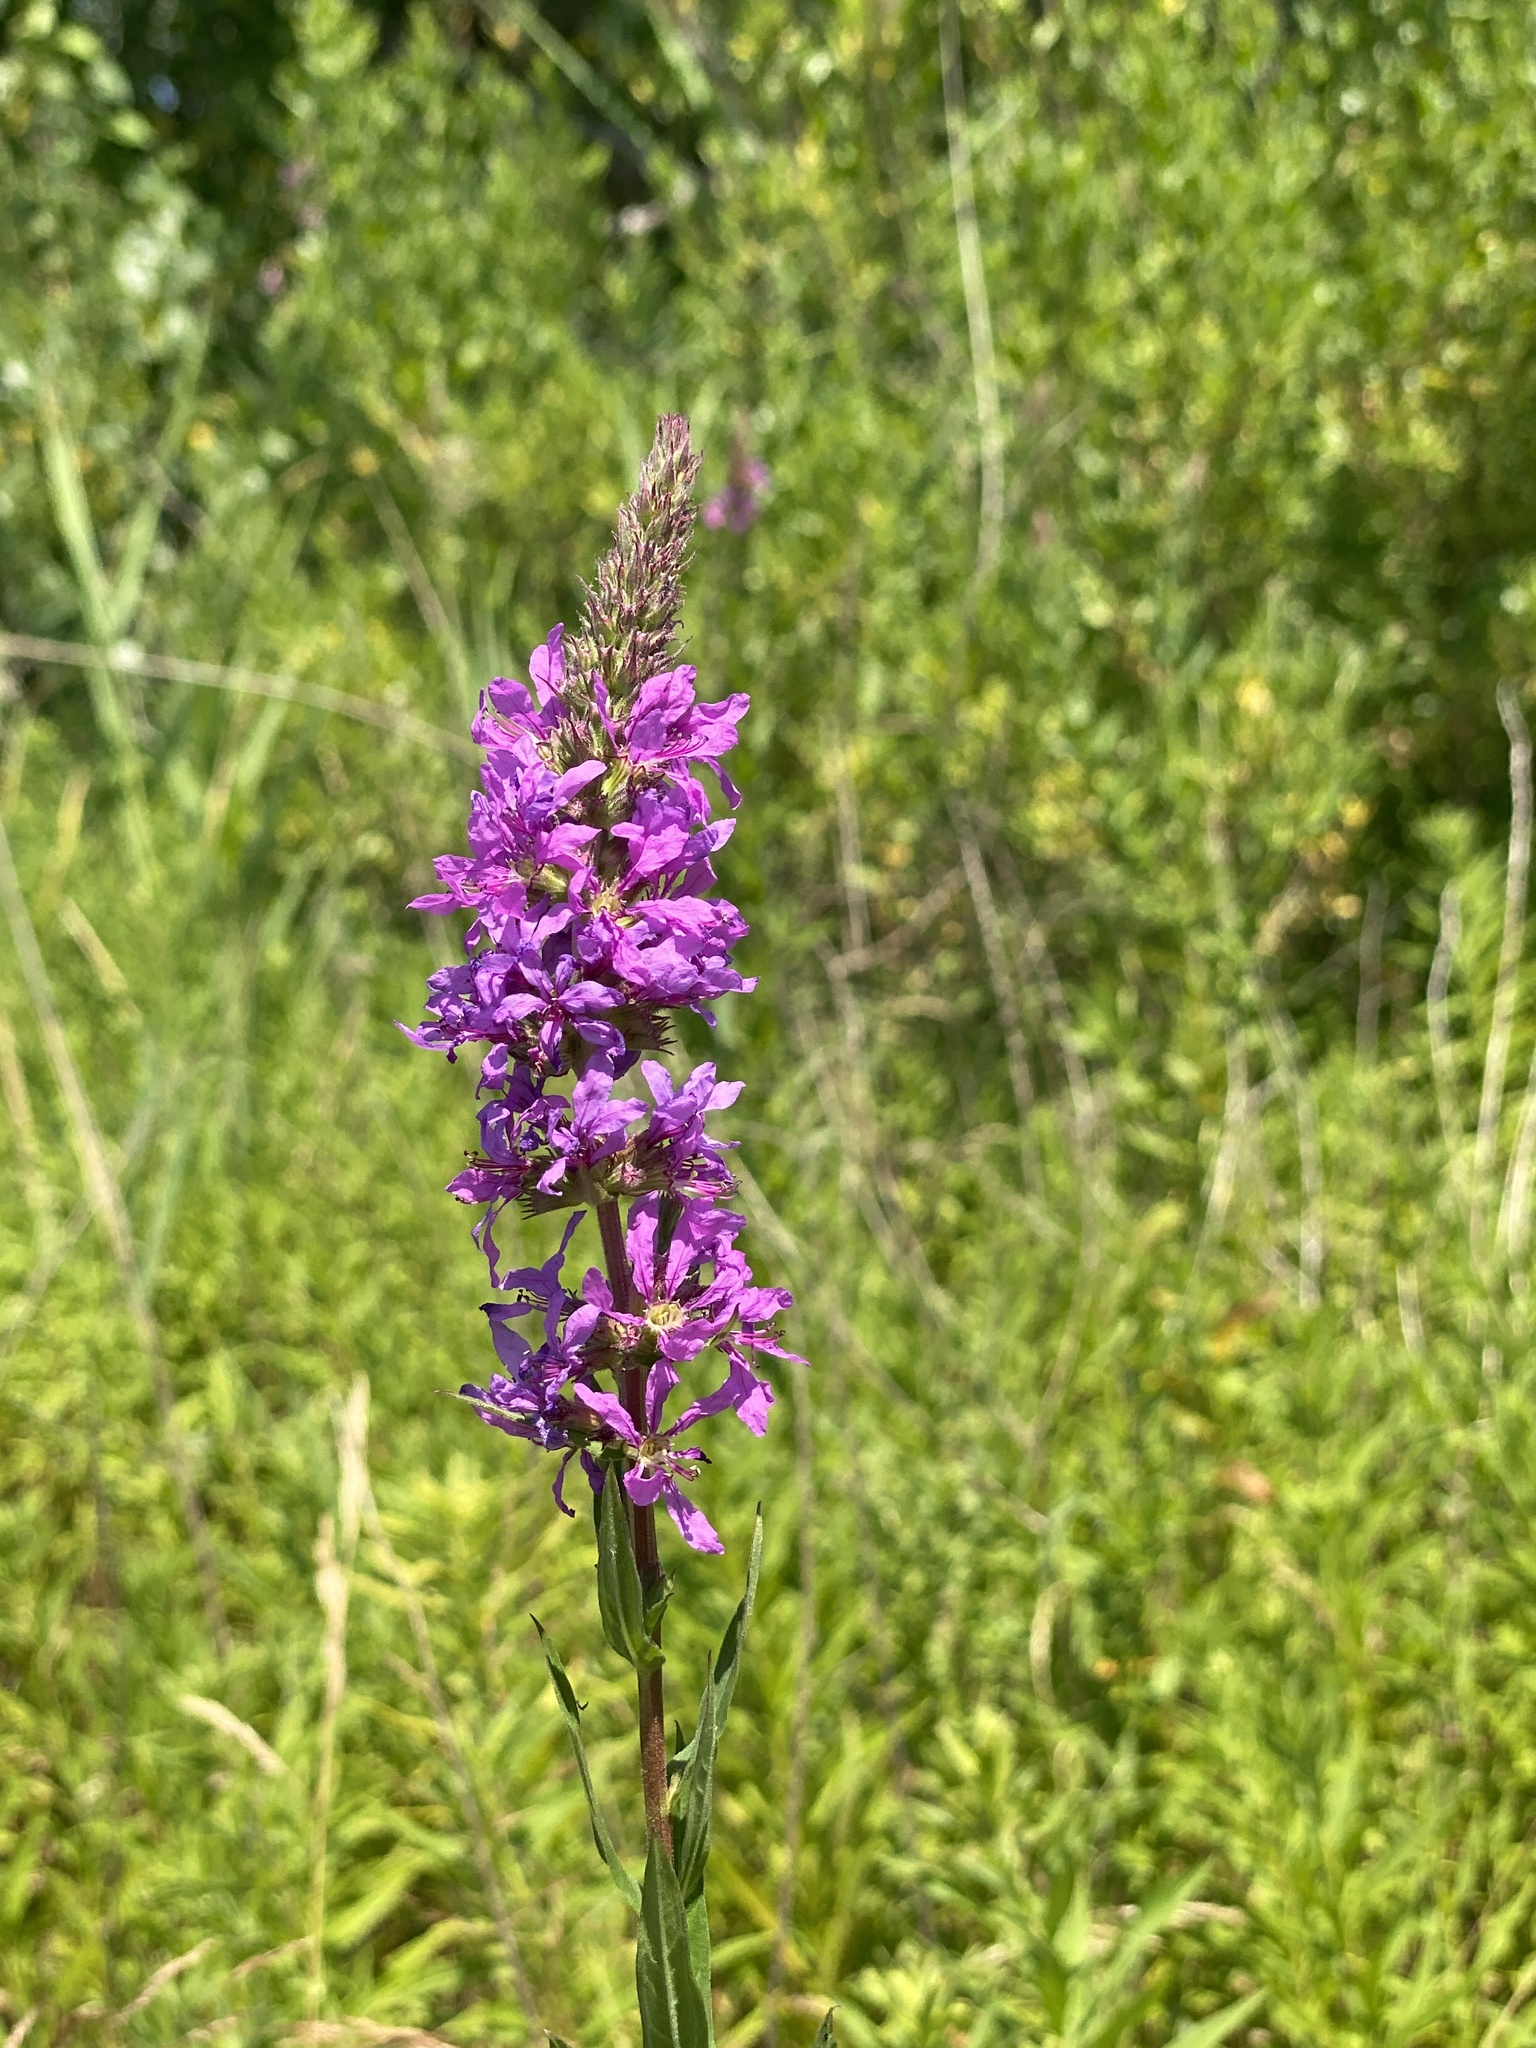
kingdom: Plantae
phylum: Tracheophyta
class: Magnoliopsida
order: Myrtales
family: Lythraceae
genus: Lythrum
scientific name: Lythrum salicaria
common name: Purple loosestrife
